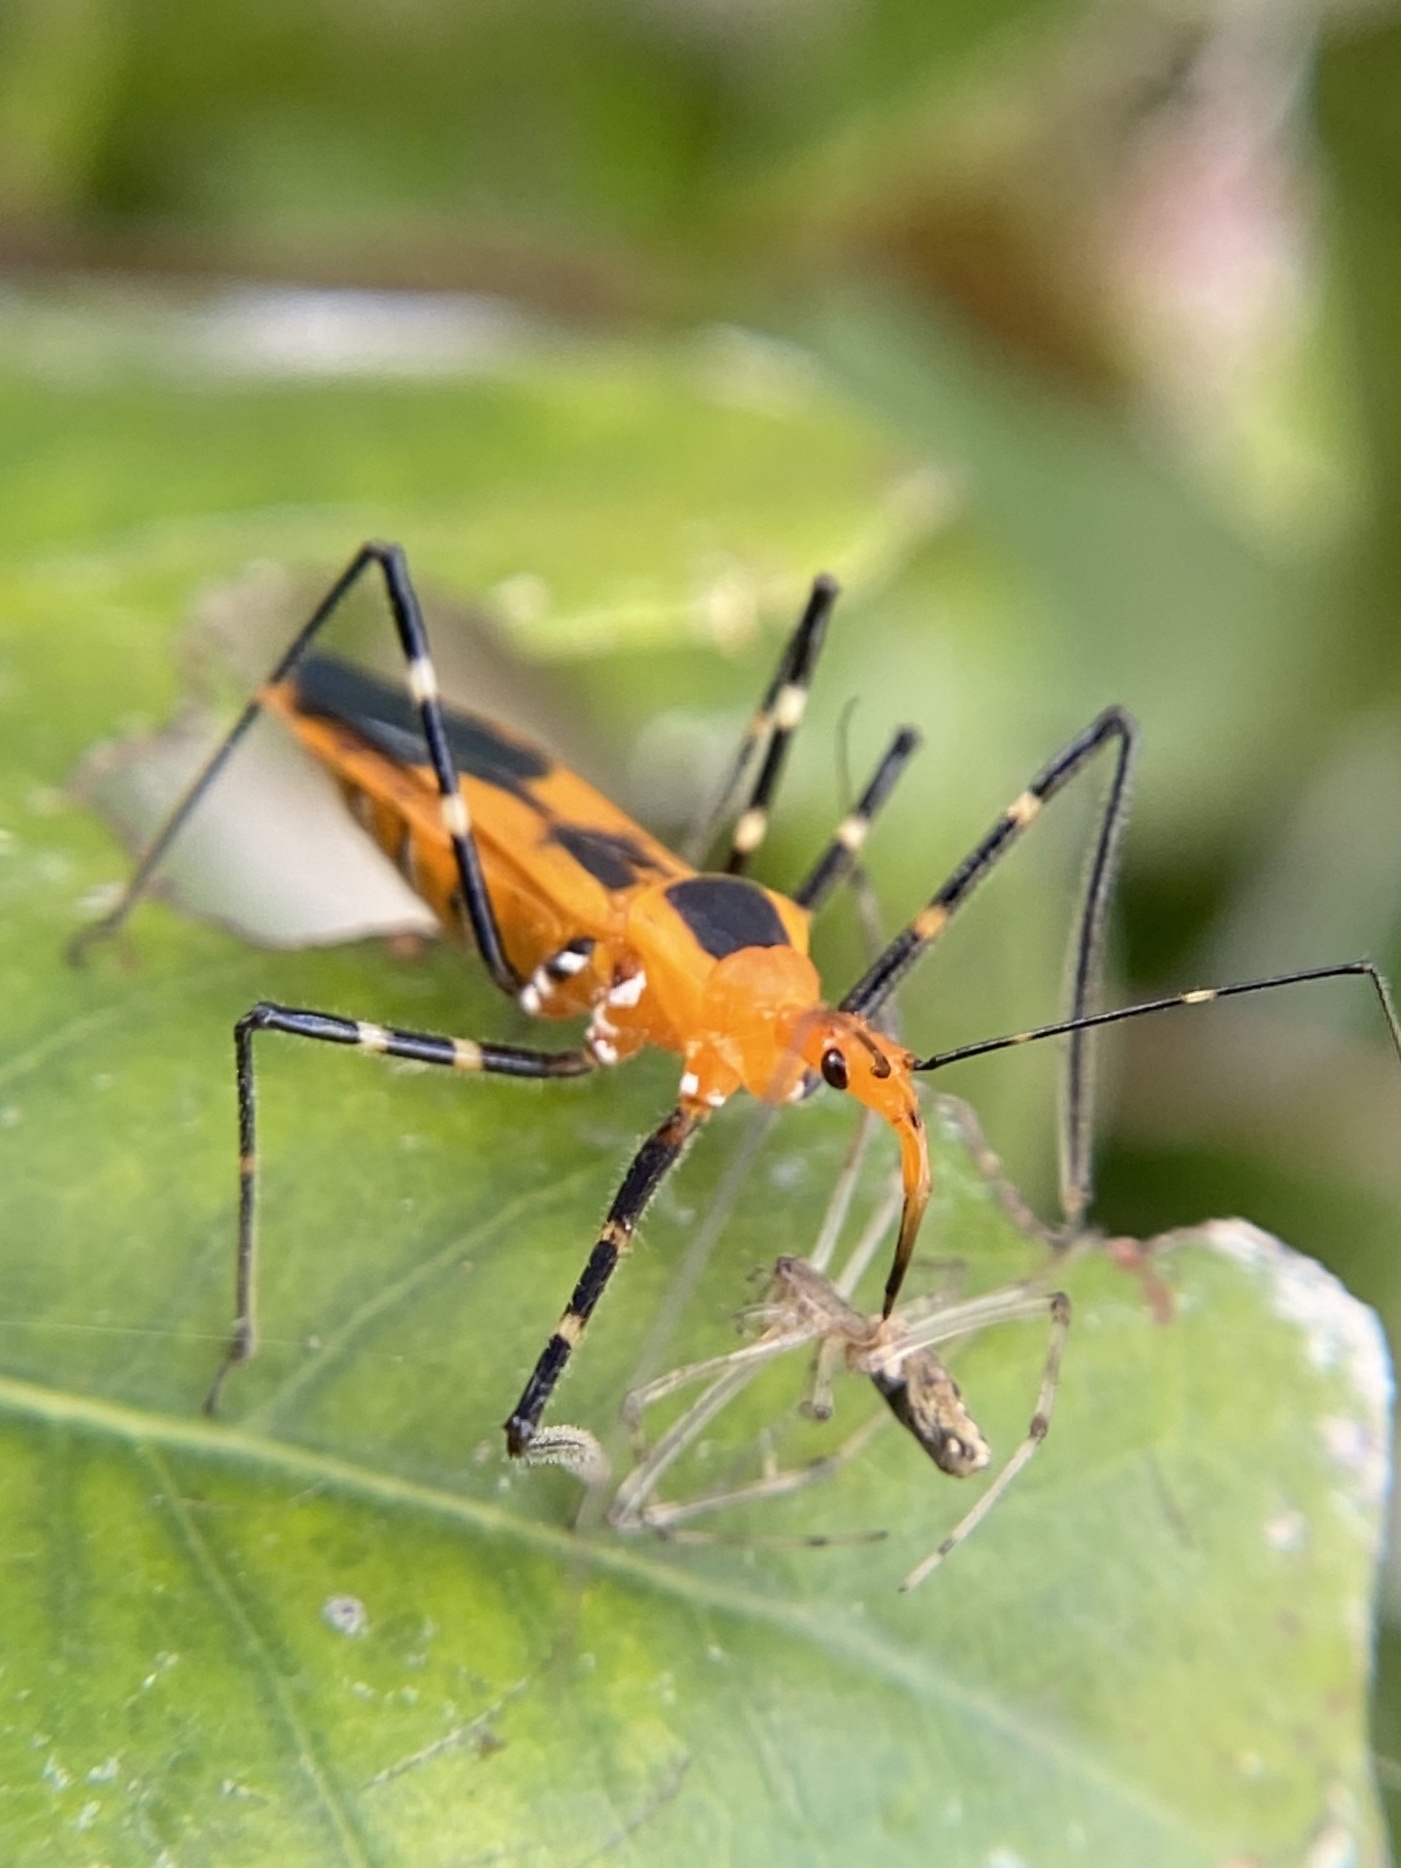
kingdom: Animalia
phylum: Arthropoda
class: Insecta
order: Hemiptera
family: Reduviidae
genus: Zelus
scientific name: Zelus longipes
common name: Milkweed assassin bug
